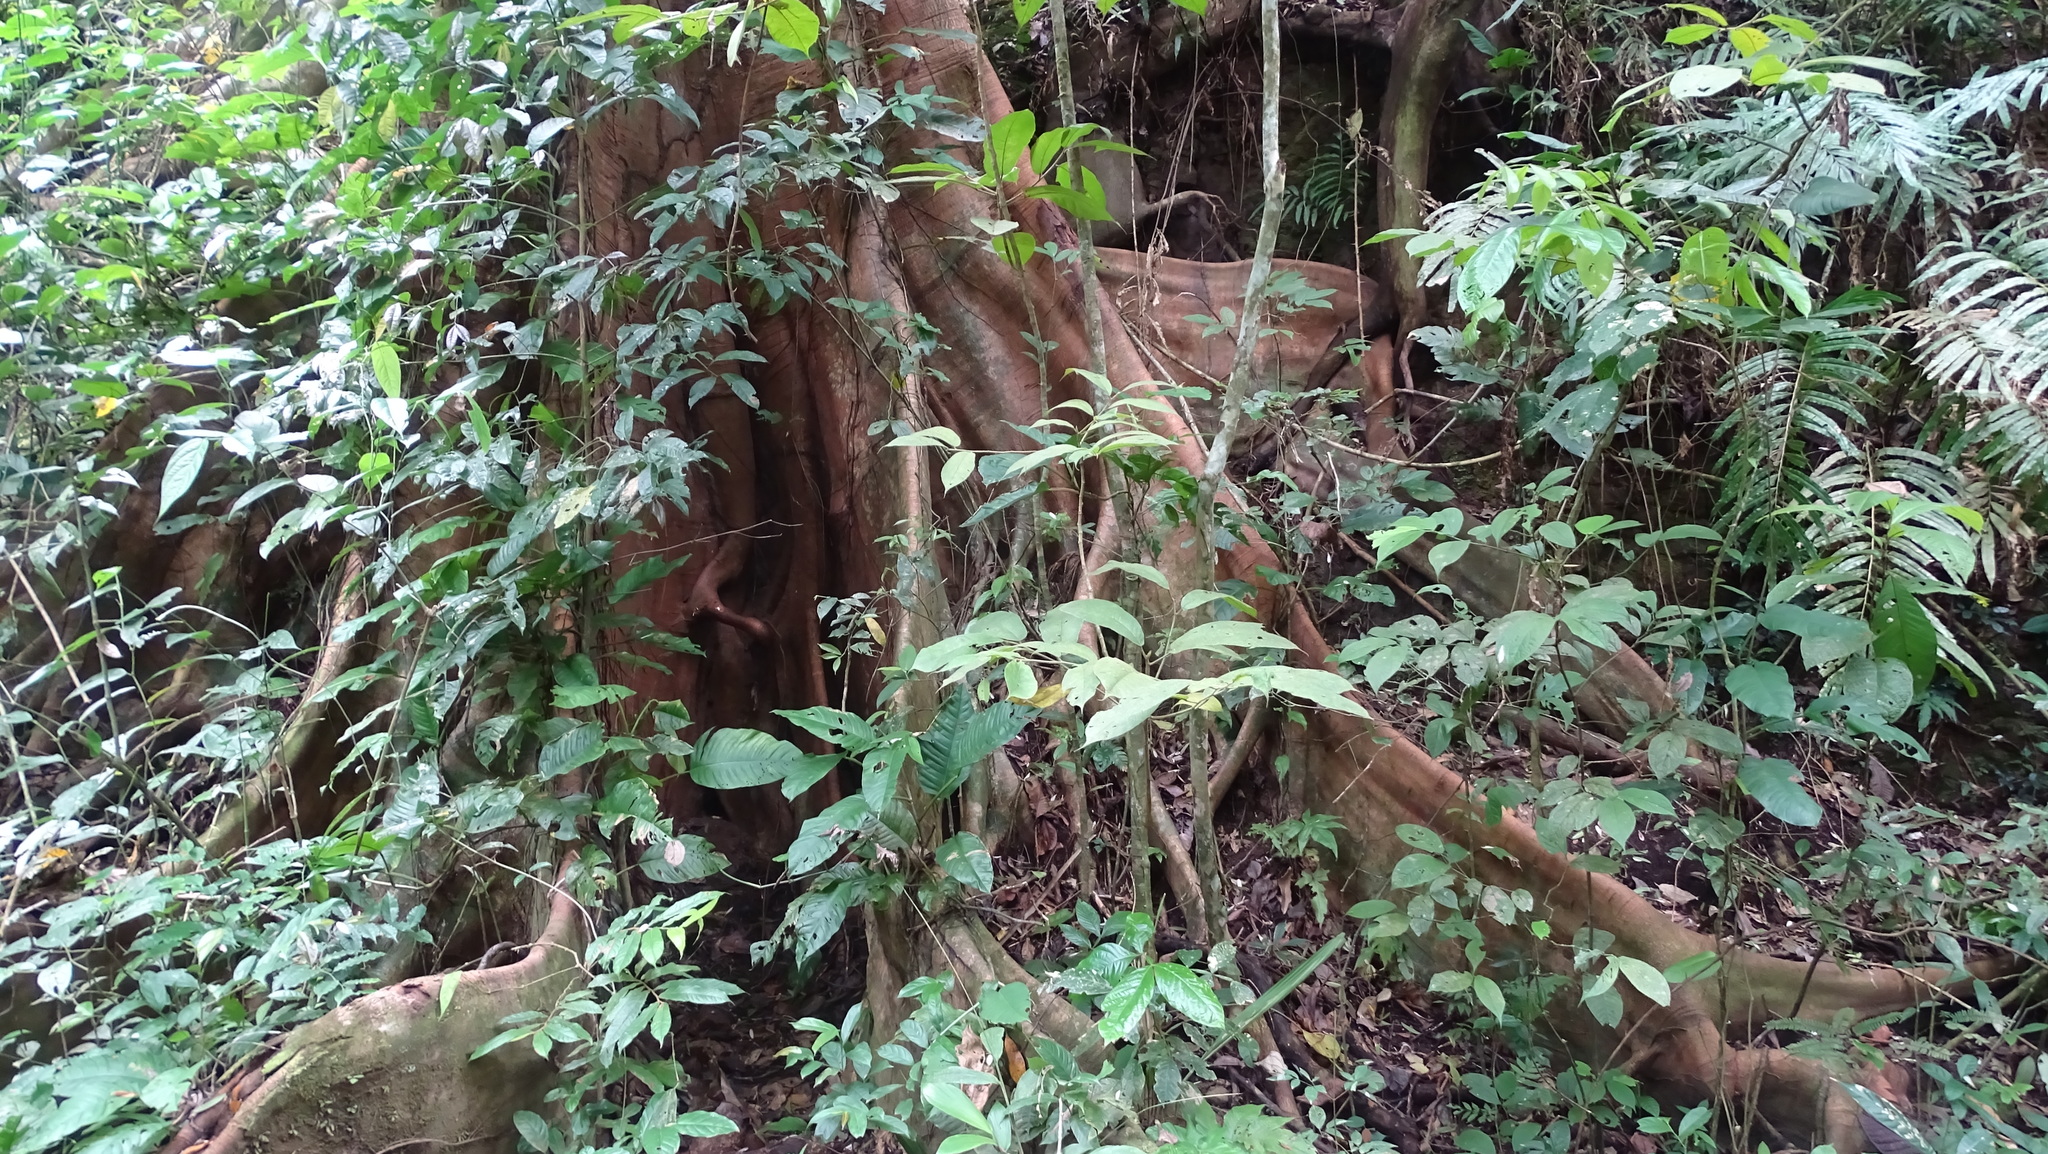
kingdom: Plantae
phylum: Tracheophyta
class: Magnoliopsida
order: Malvales
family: Malvaceae
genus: Ceiba
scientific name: Ceiba pentandra
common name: Kapok
